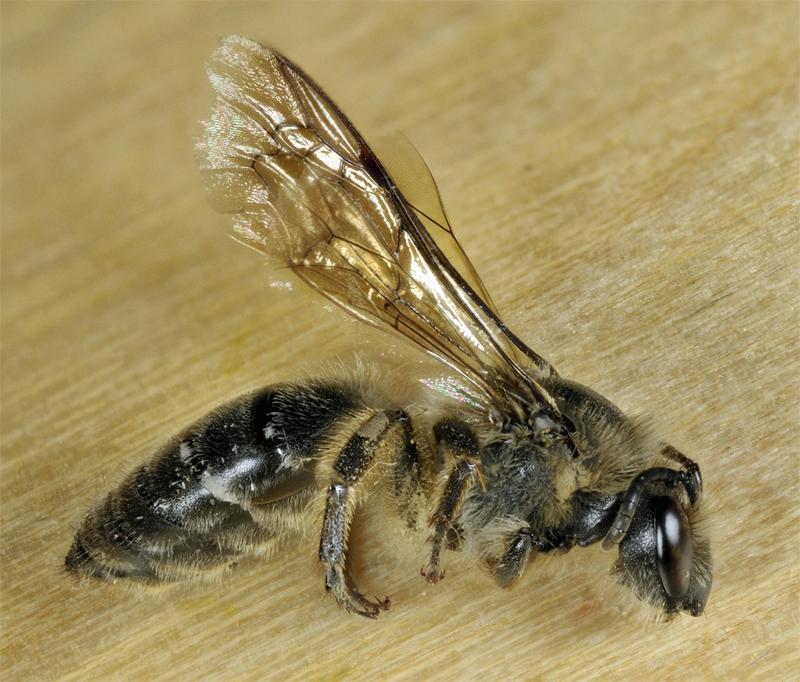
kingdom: Animalia
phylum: Arthropoda
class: Insecta
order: Hymenoptera
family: Colletidae
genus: Colletes
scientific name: Colletes inaequalis
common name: Unequal cellophane bee
